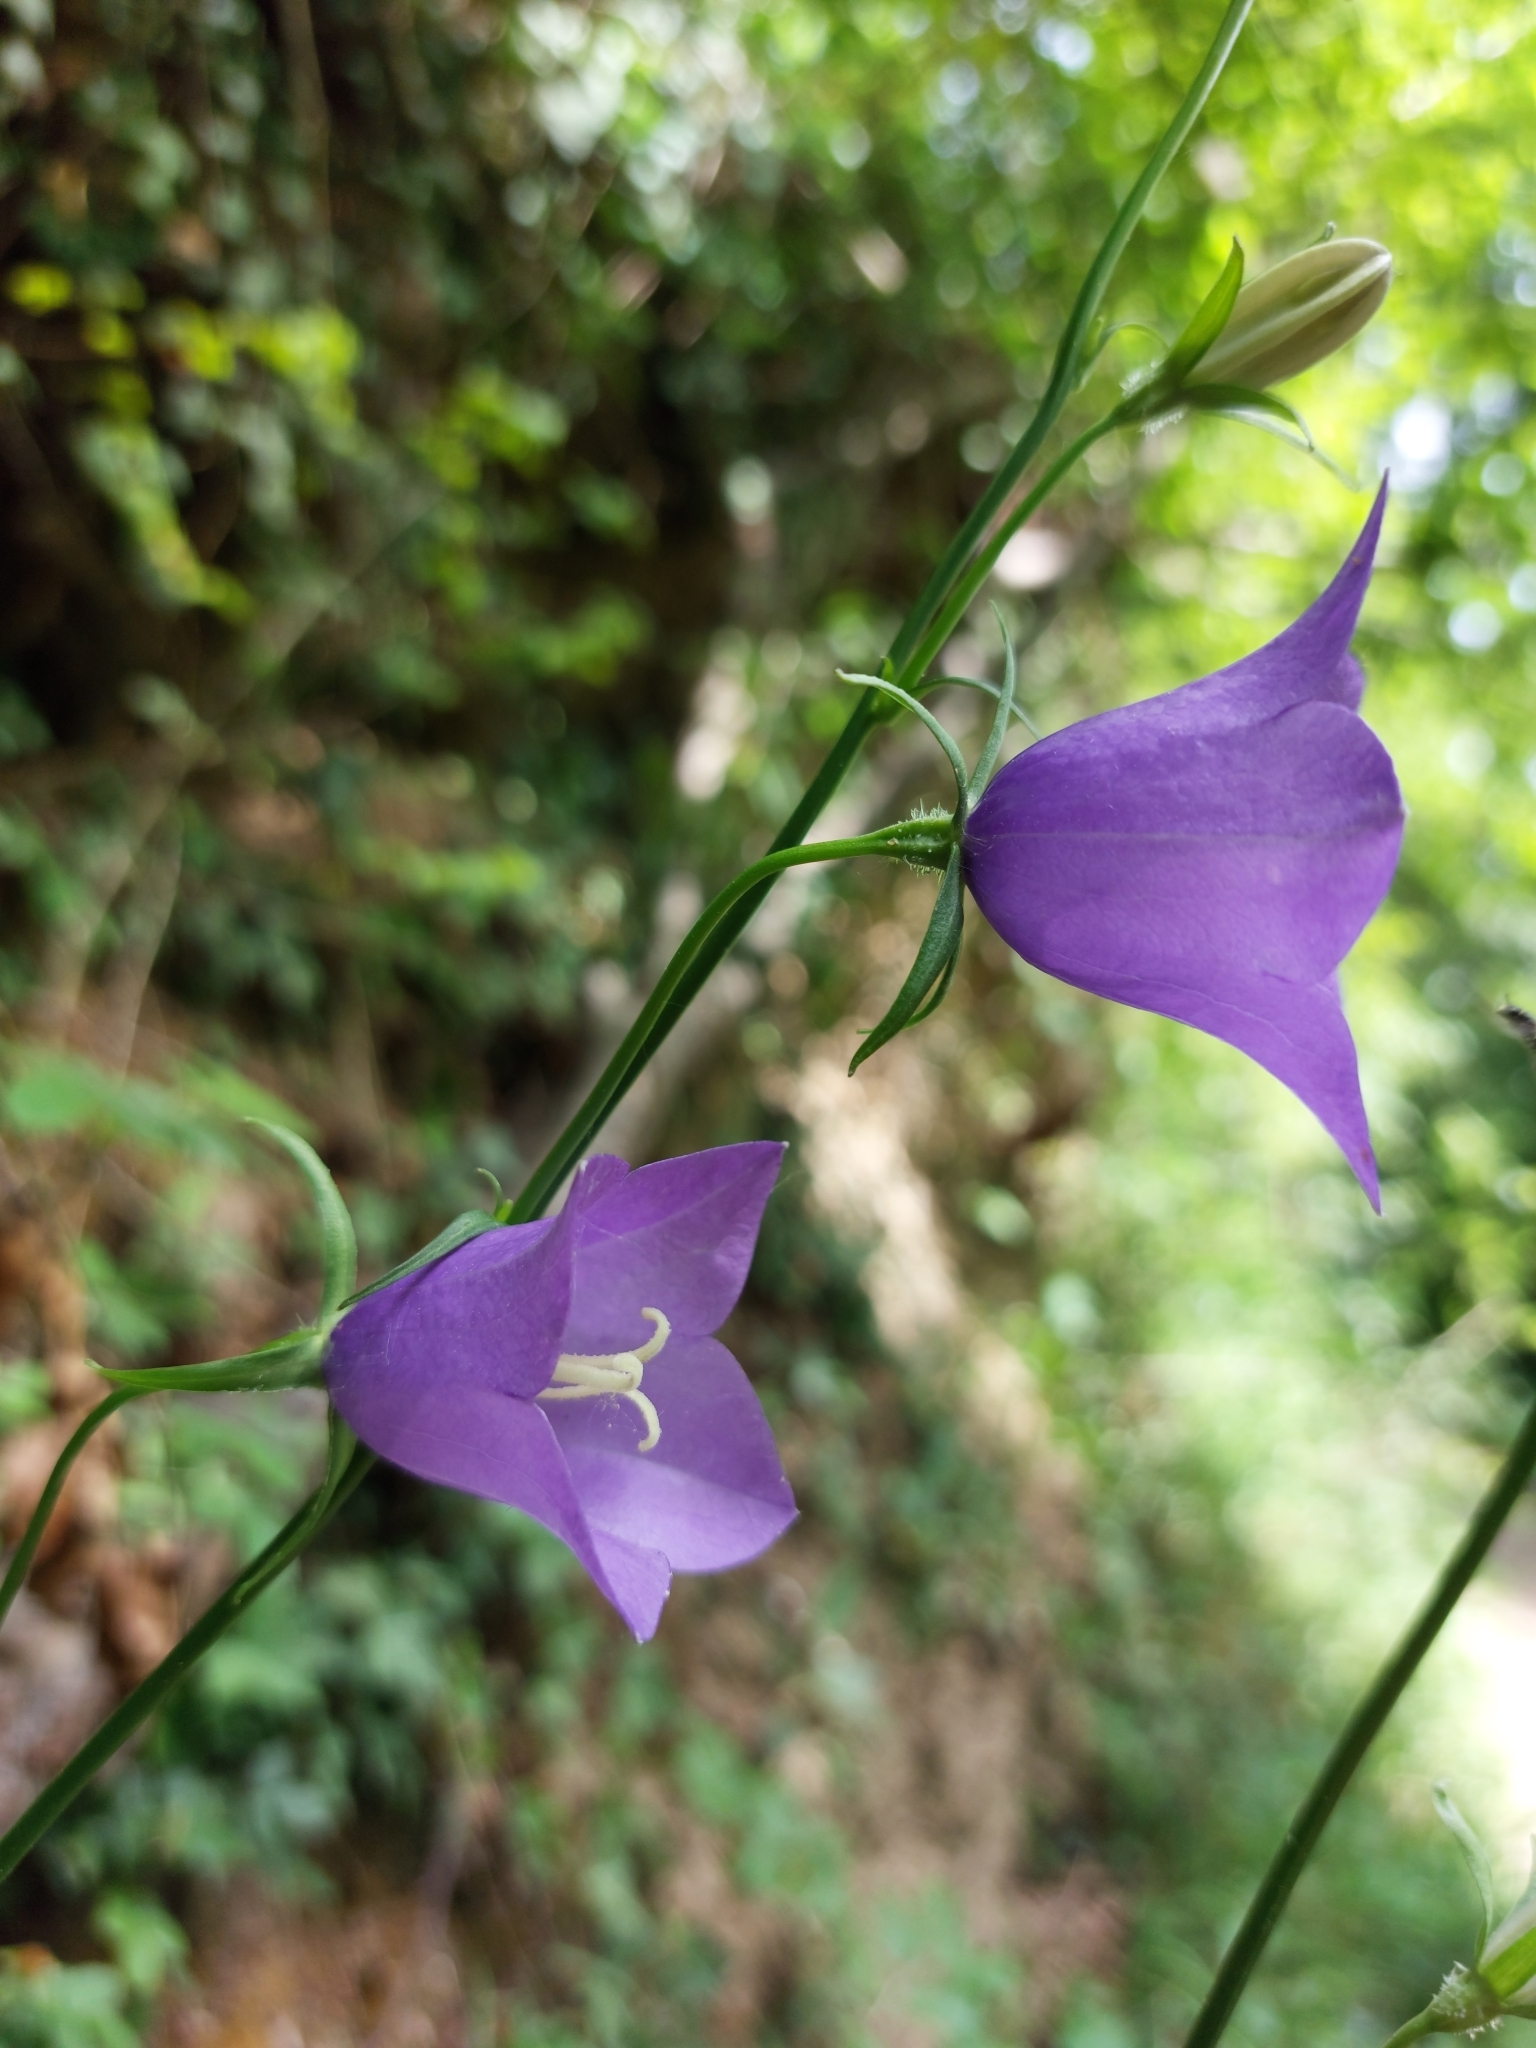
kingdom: Plantae
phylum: Tracheophyta
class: Magnoliopsida
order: Asterales
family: Campanulaceae
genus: Campanula
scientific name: Campanula persicifolia
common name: Peach-leaved bellflower
